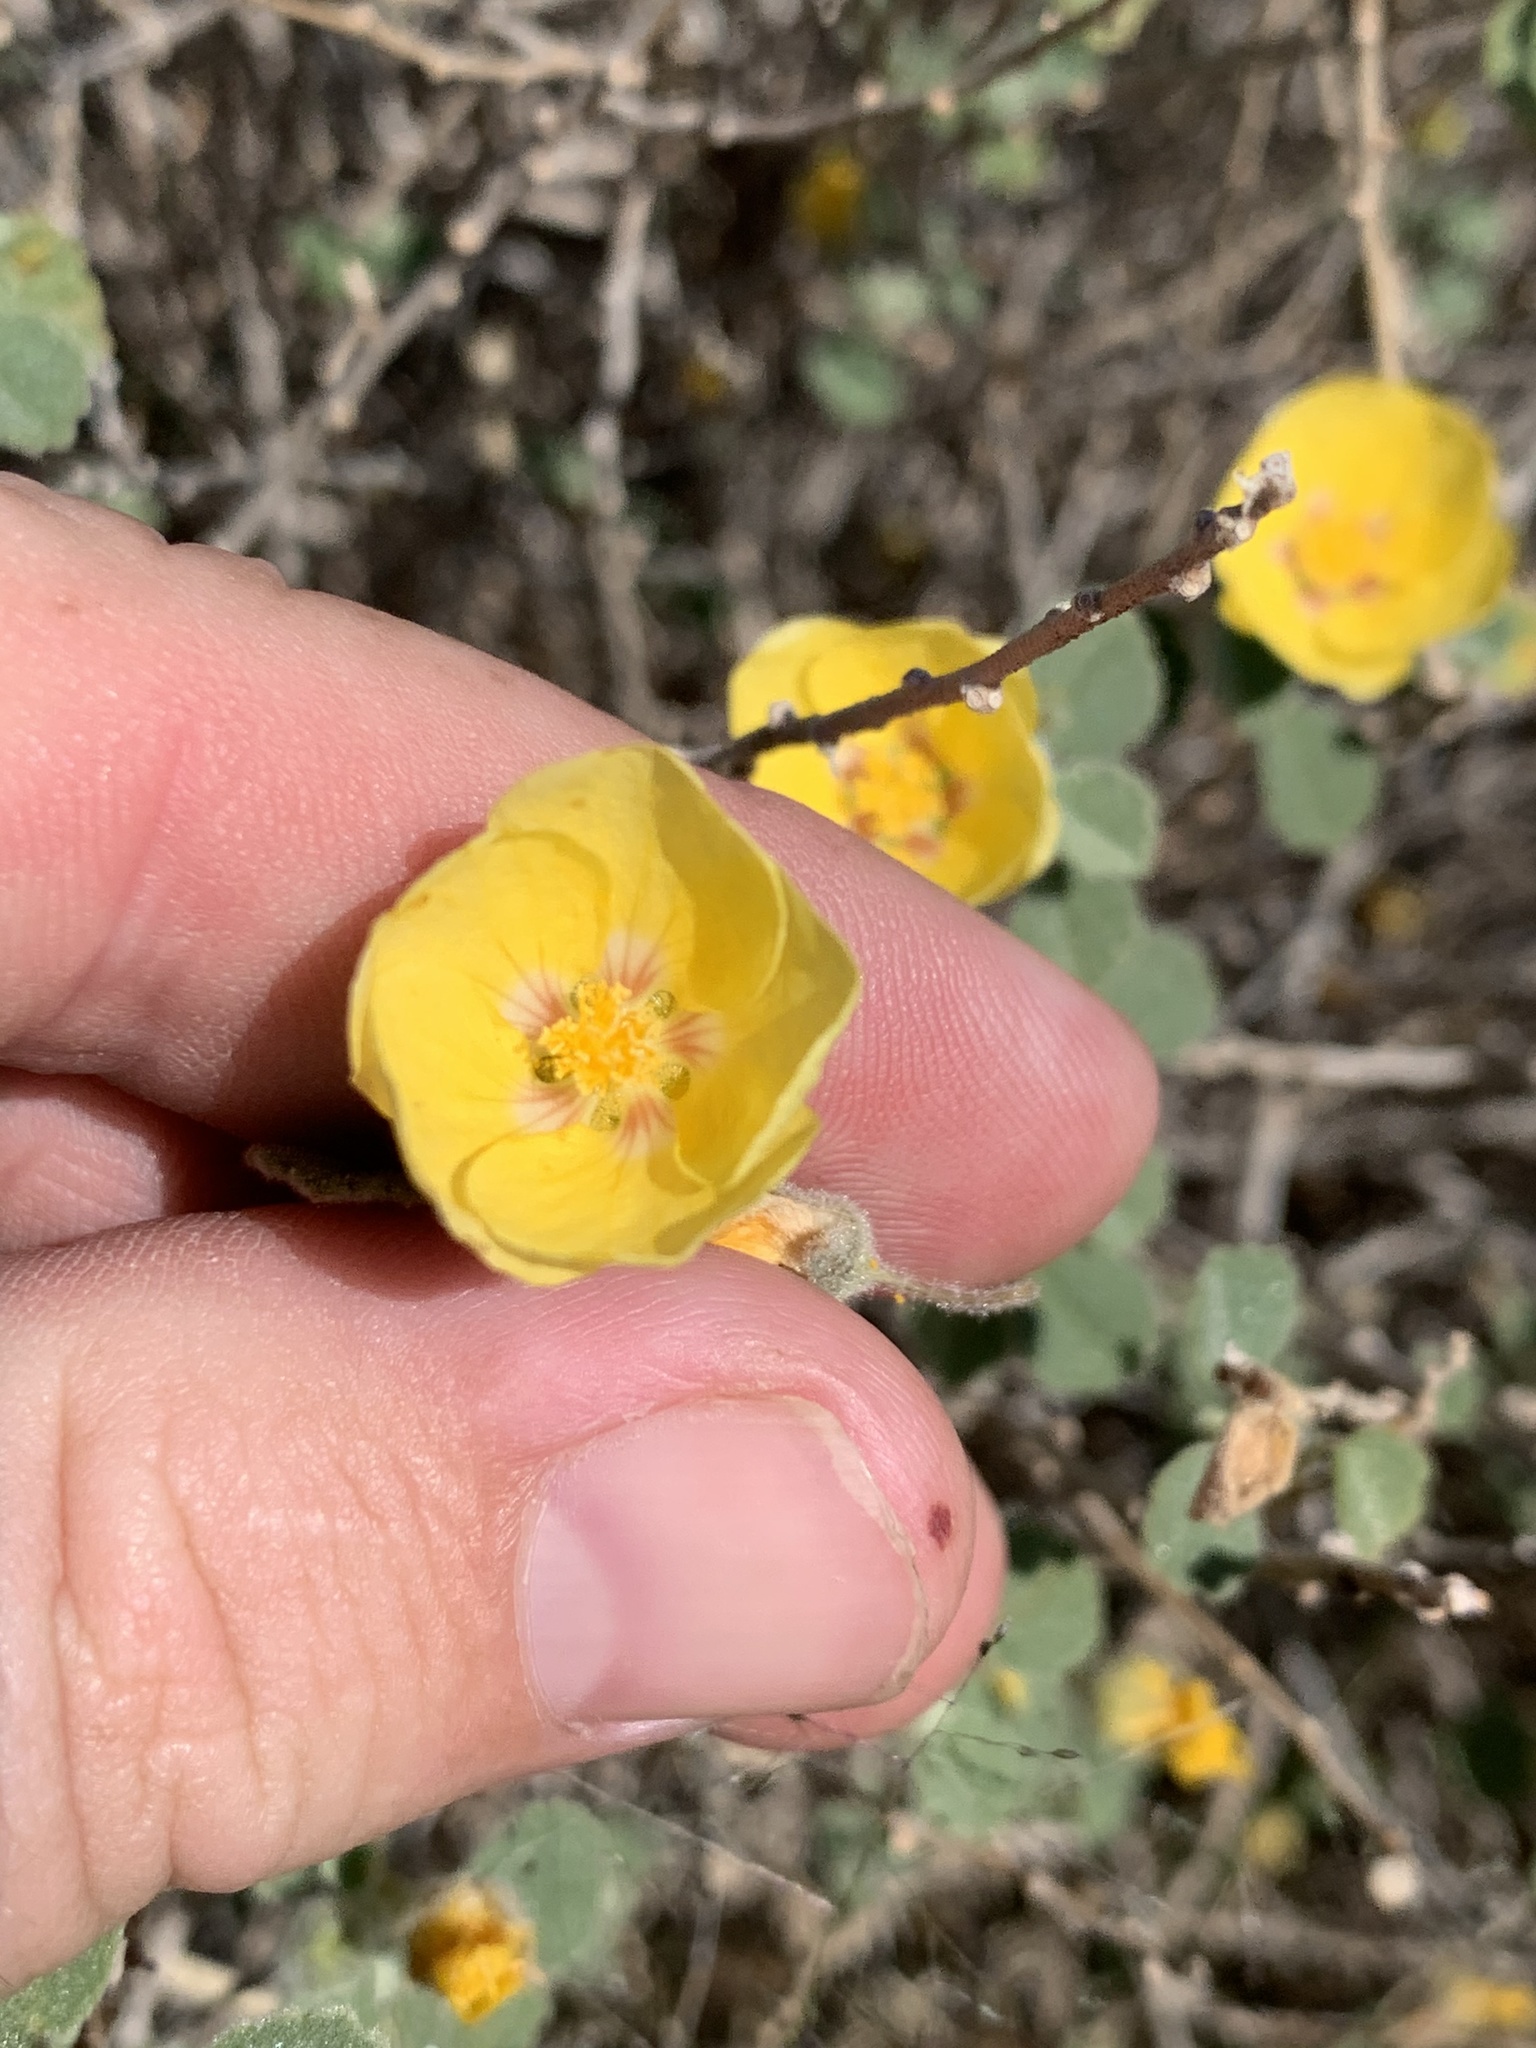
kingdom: Plantae
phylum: Tracheophyta
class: Magnoliopsida
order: Malvales
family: Malvaceae
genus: Abutilon
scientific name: Abutilon halophilum
